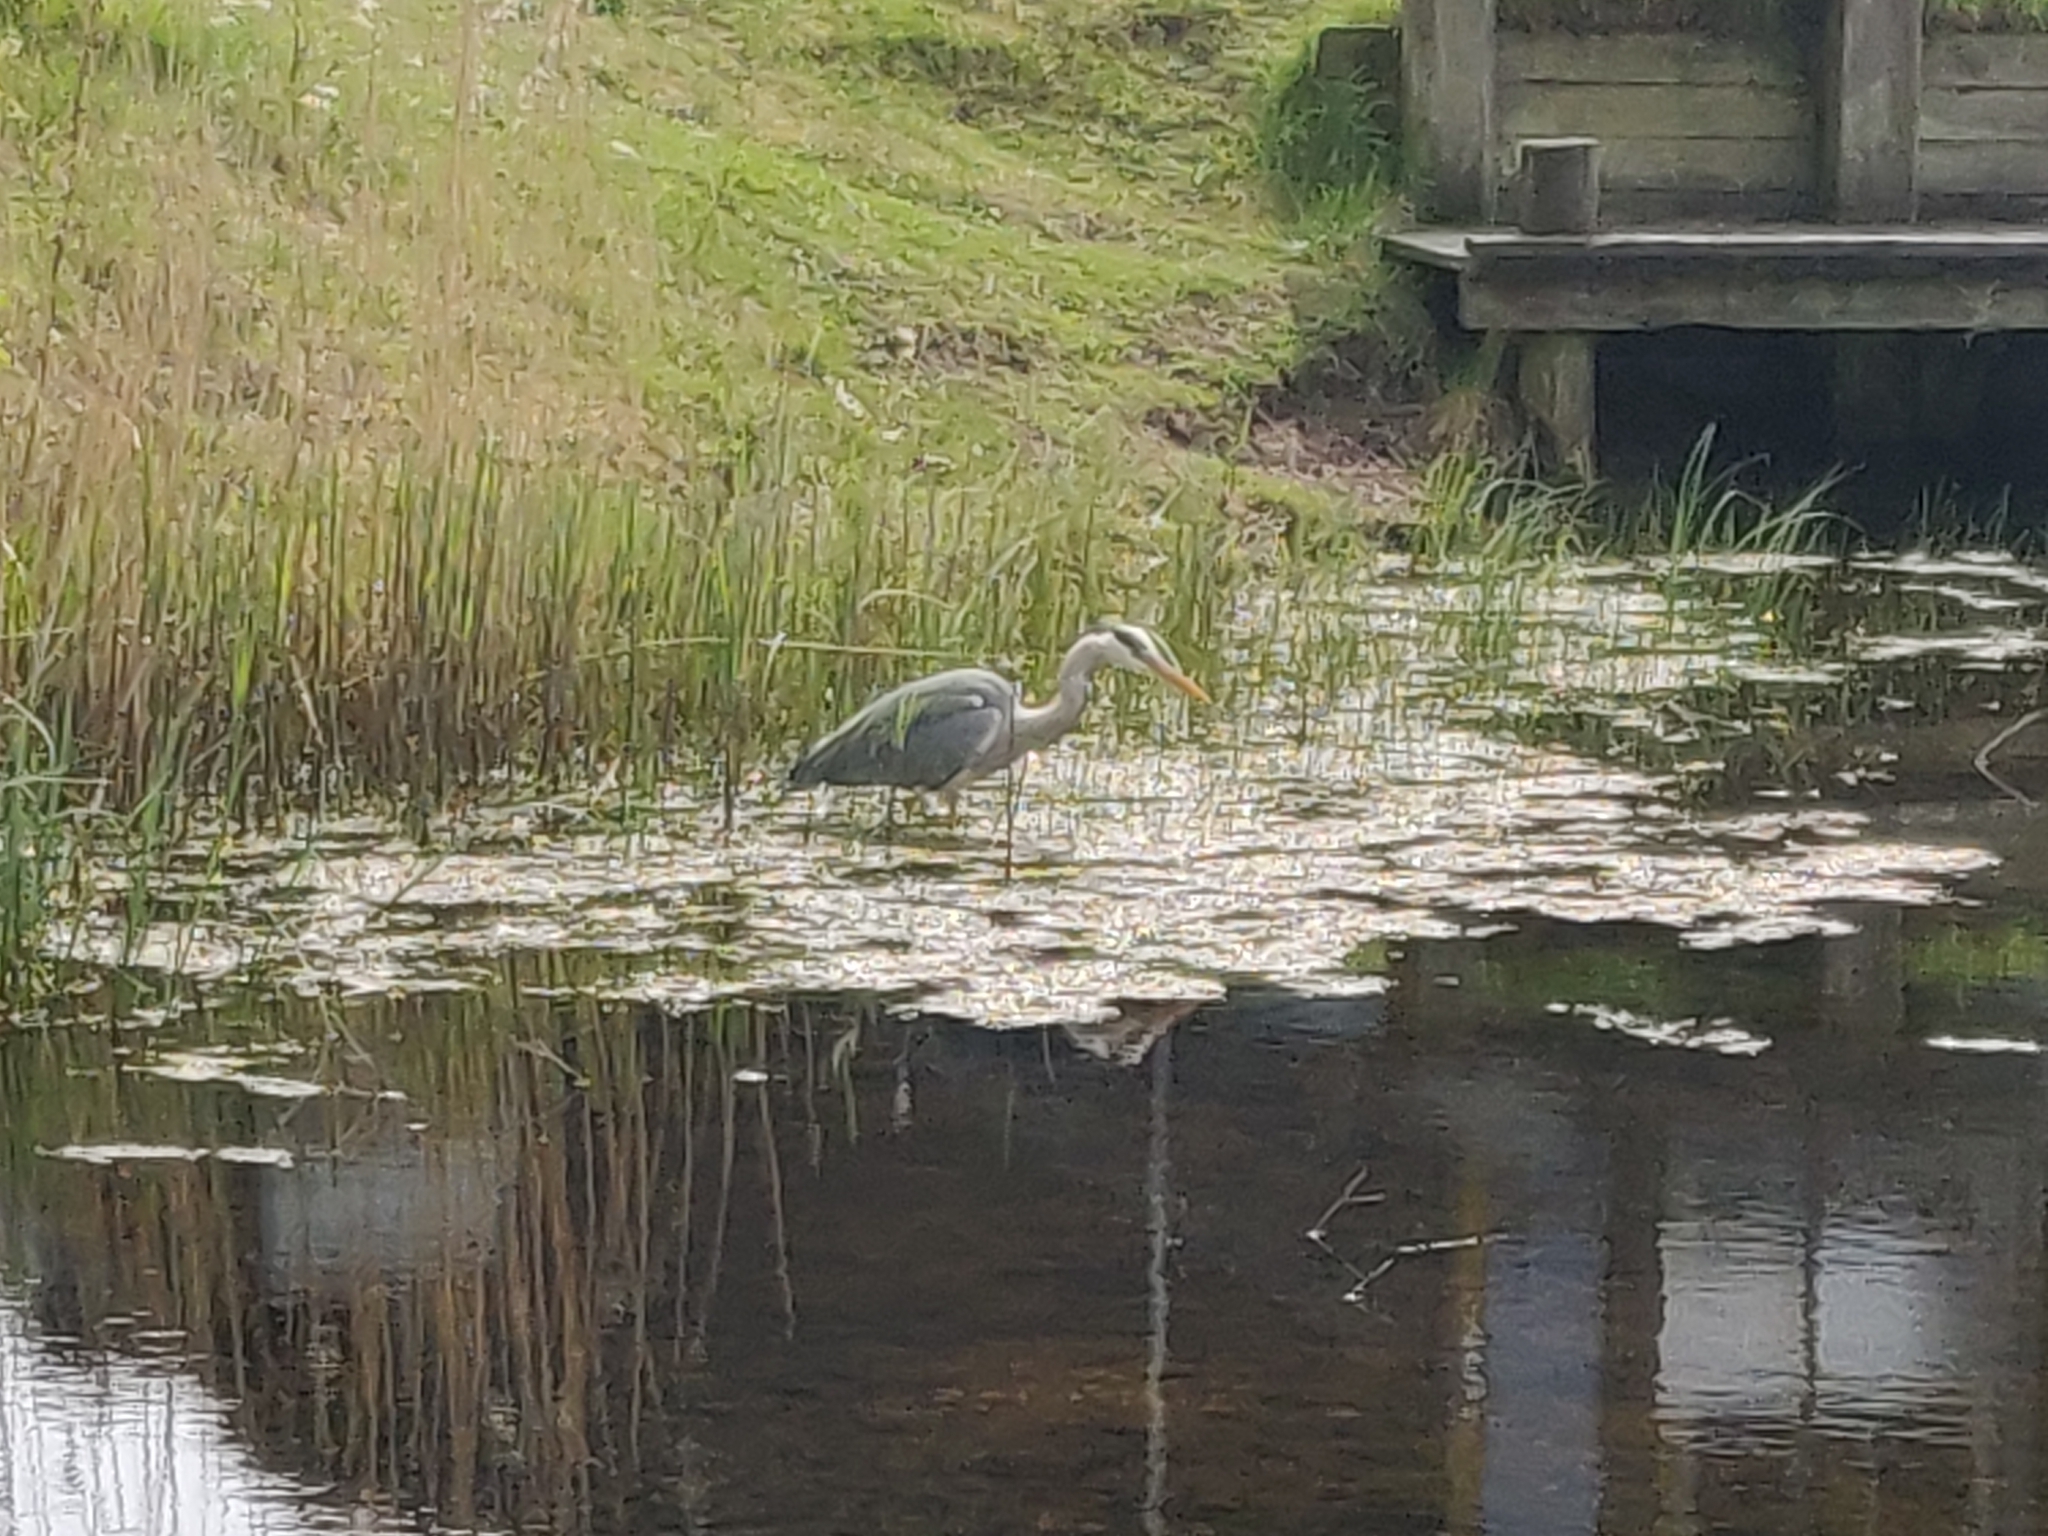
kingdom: Animalia
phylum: Chordata
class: Aves
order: Pelecaniformes
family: Ardeidae
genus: Ardea
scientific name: Ardea cinerea
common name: Grey heron
